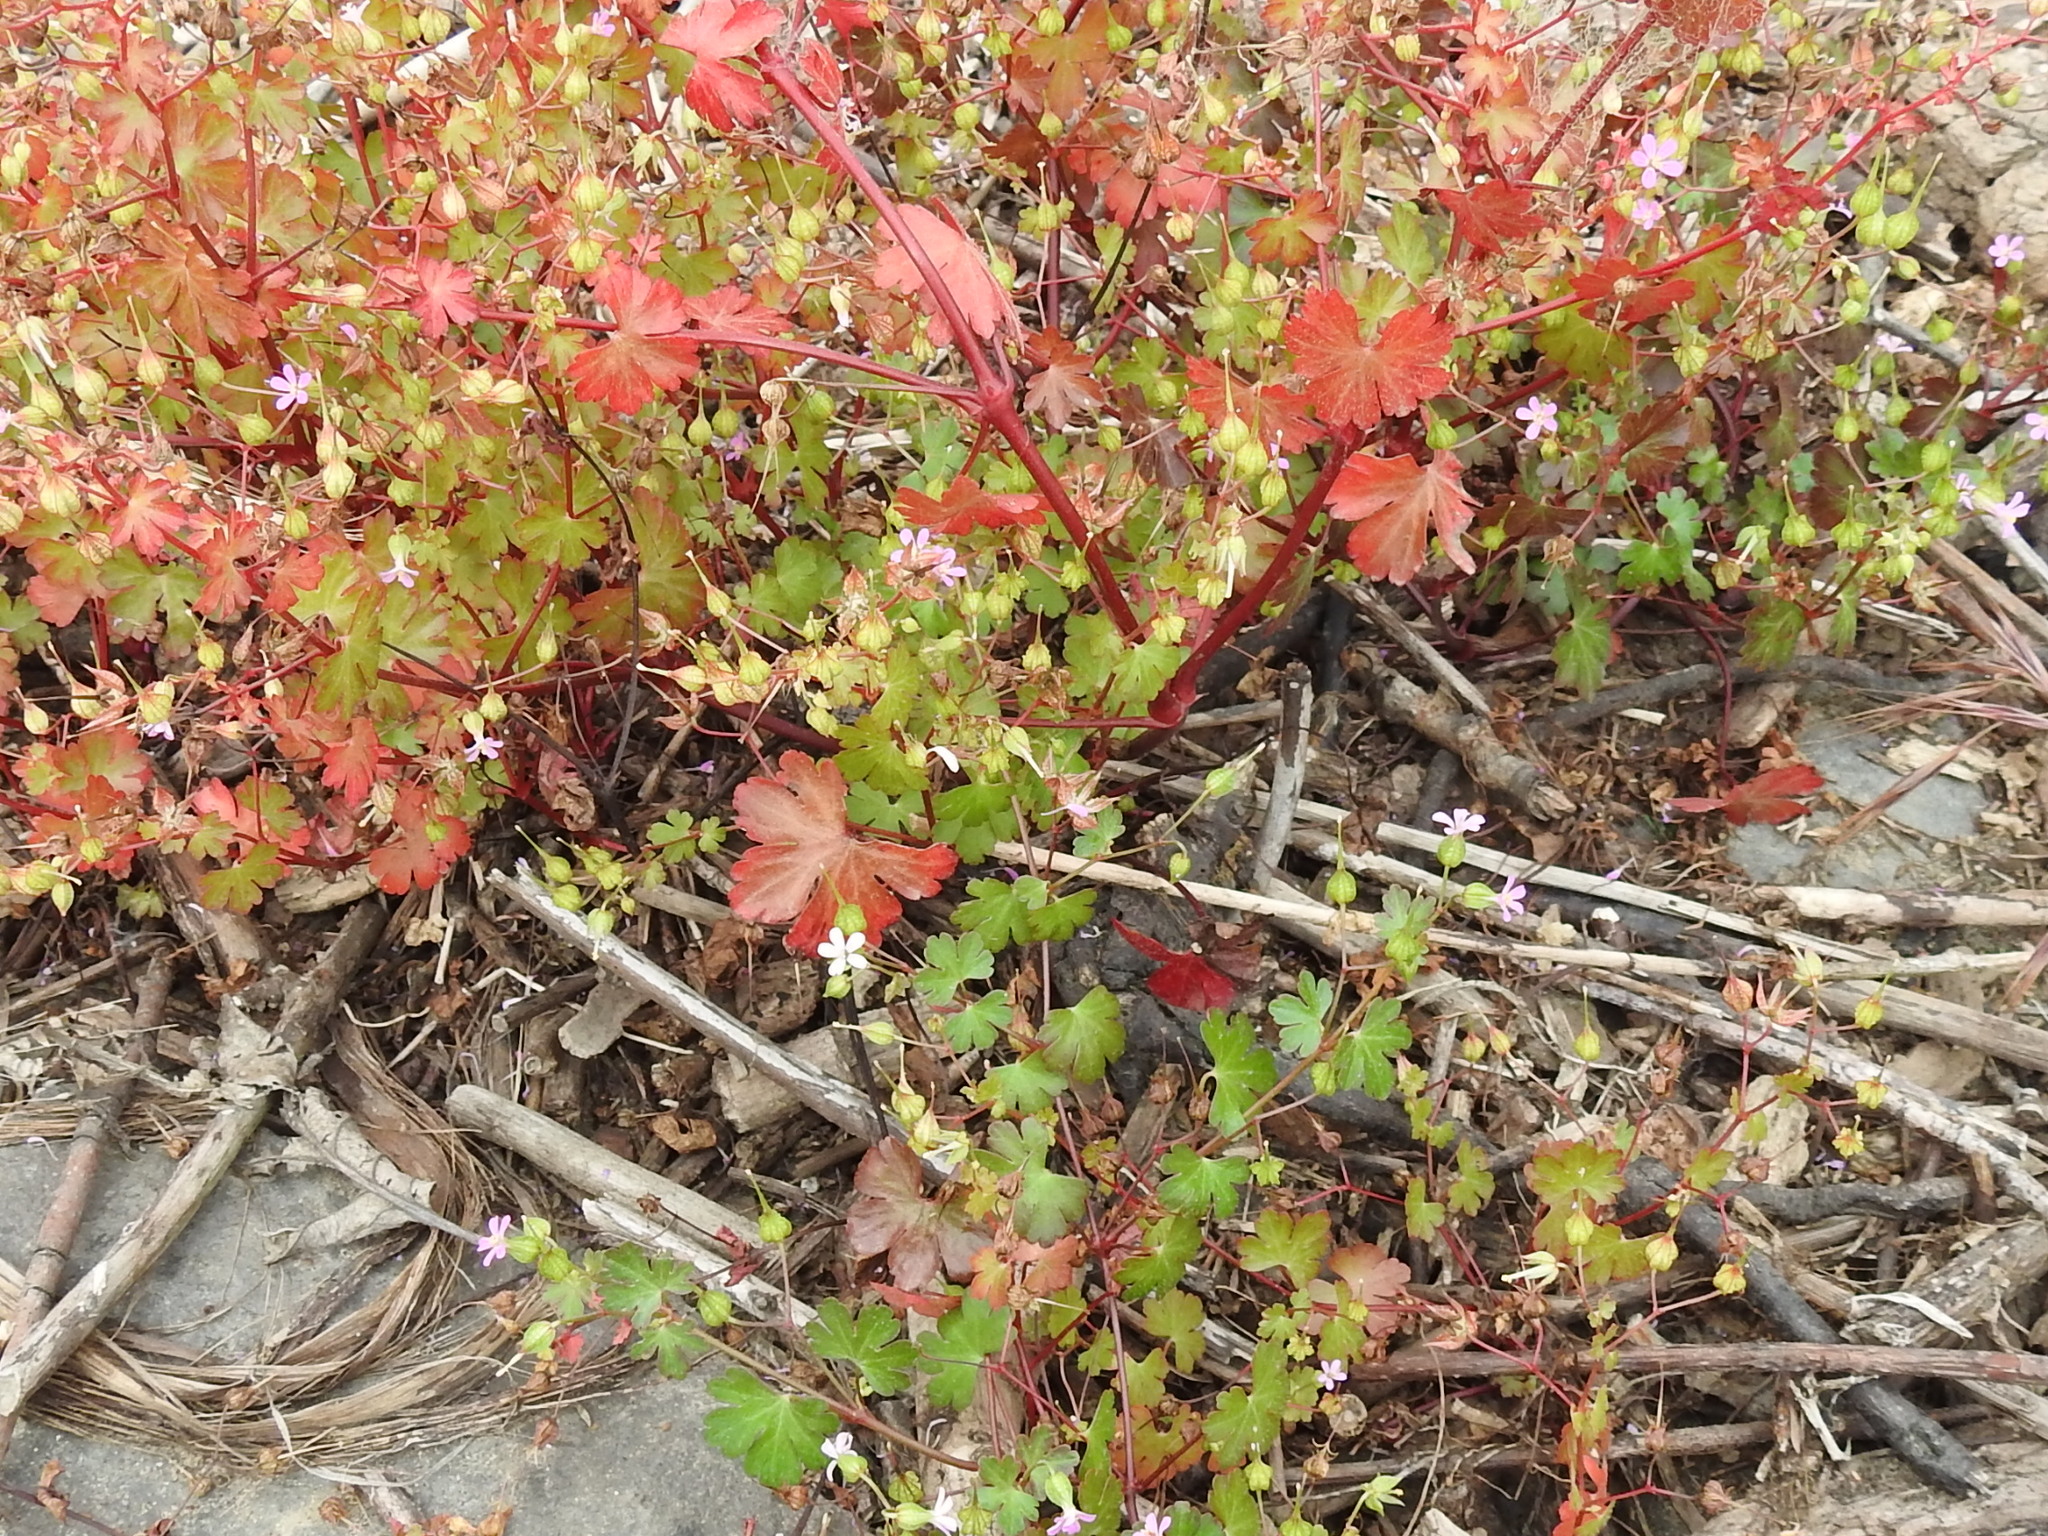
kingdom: Plantae
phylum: Tracheophyta
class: Magnoliopsida
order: Geraniales
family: Geraniaceae
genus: Geranium
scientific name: Geranium lucidum
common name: Shining crane's-bill
